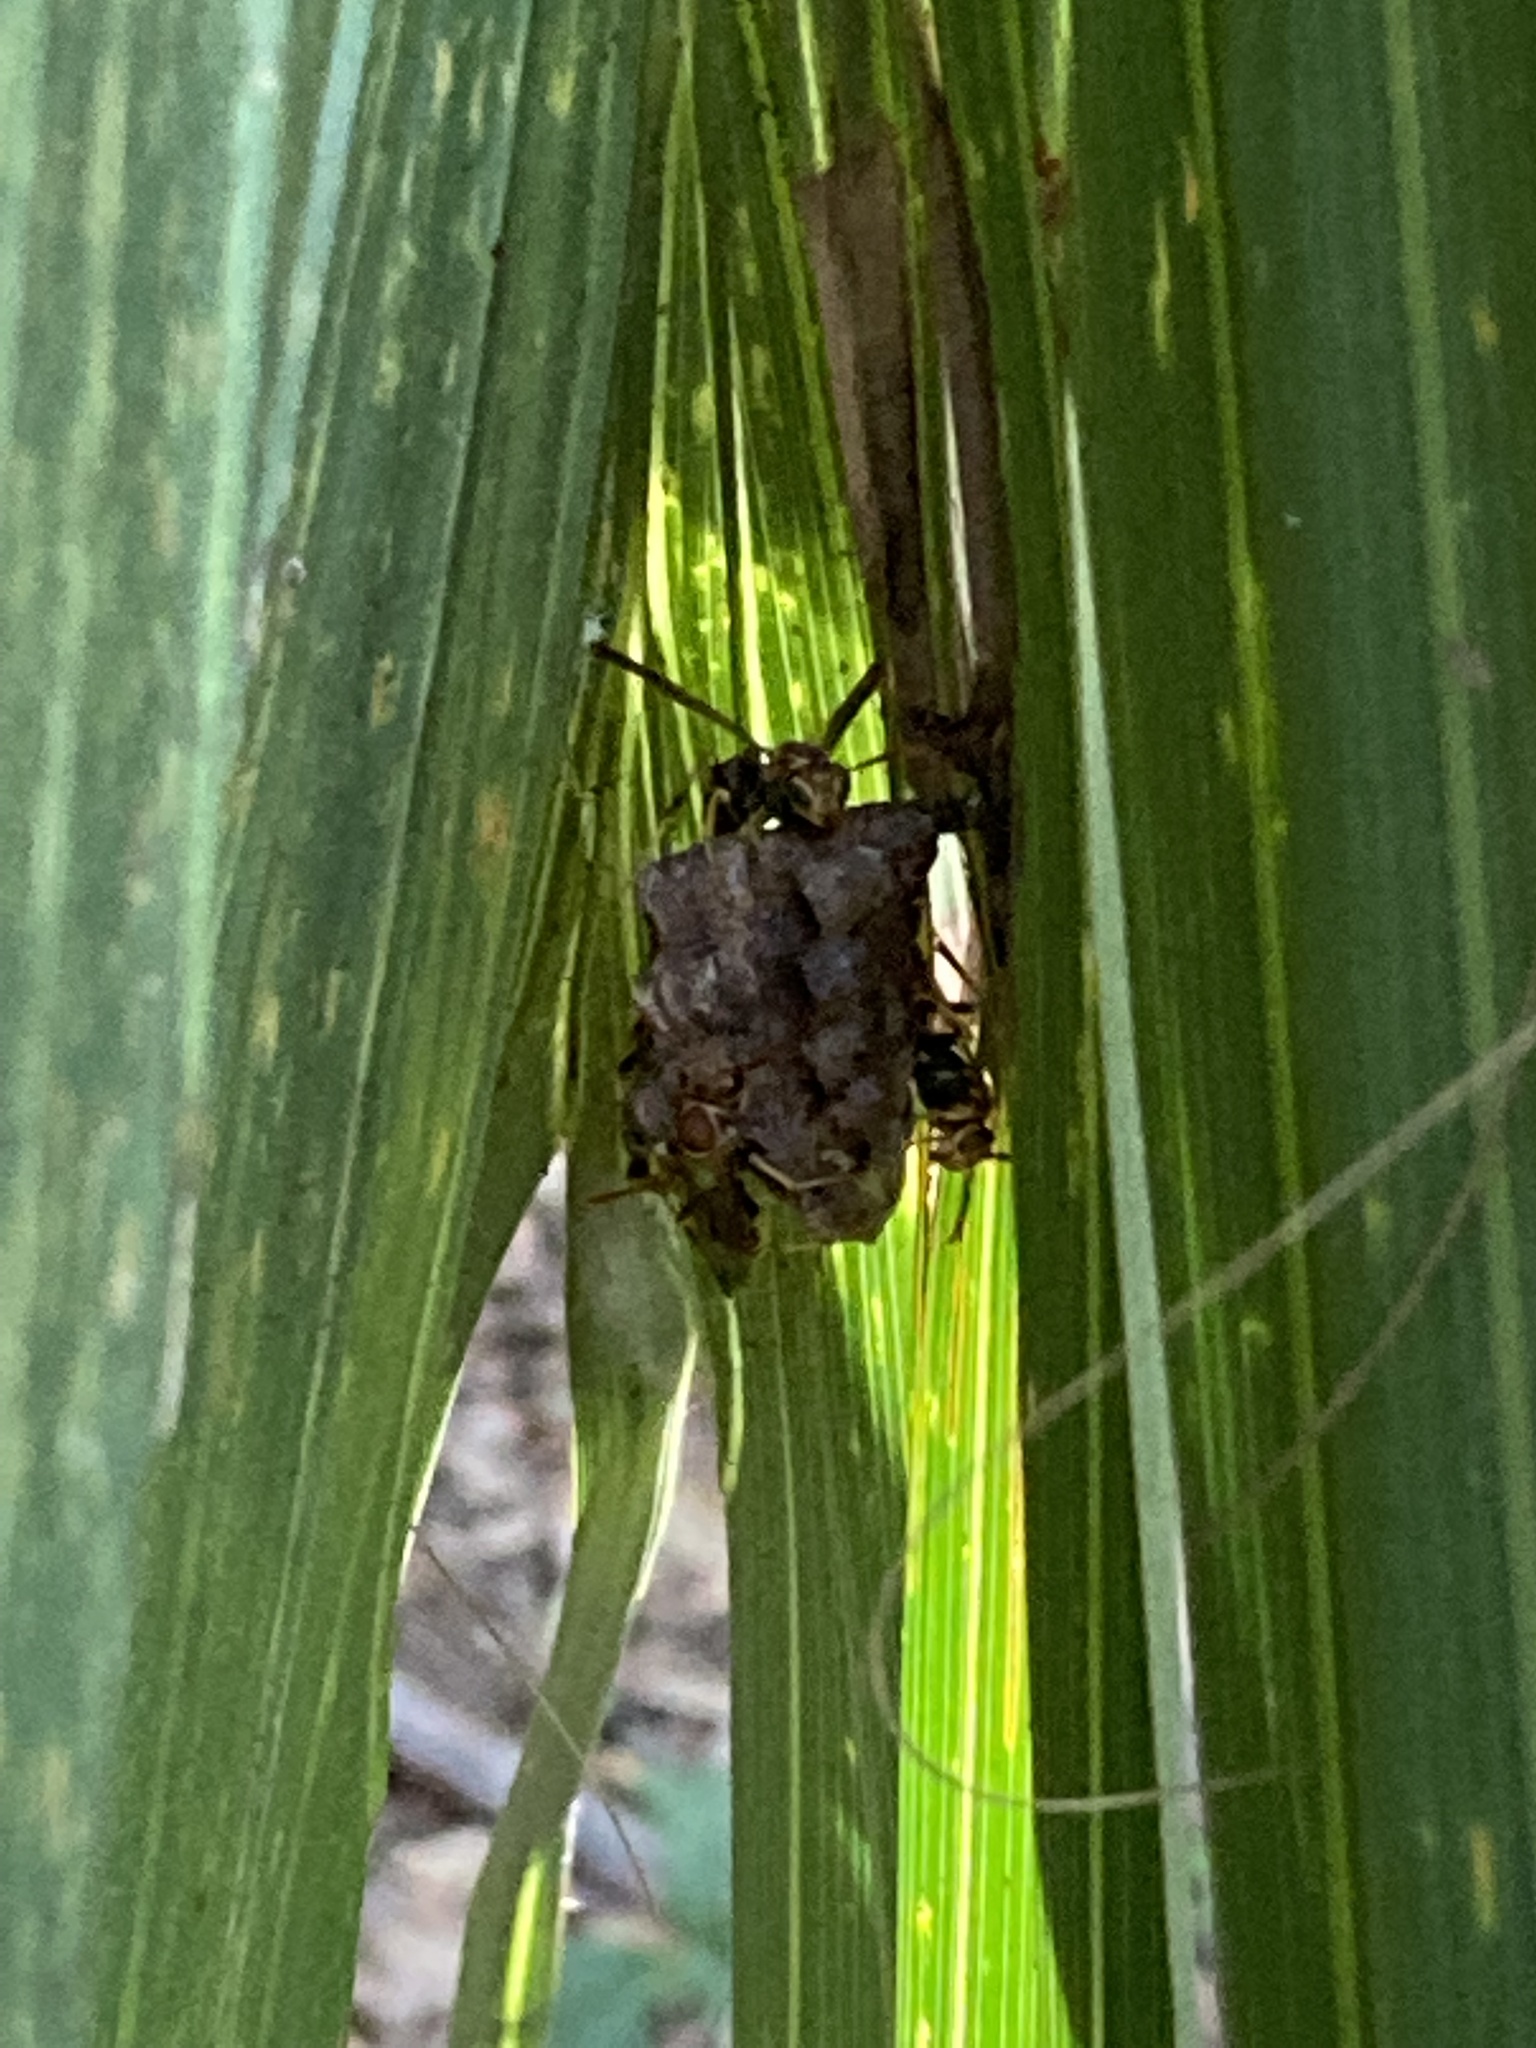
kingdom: Animalia
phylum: Arthropoda
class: Insecta
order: Hymenoptera
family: Vespidae
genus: Mischocyttarus
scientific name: Mischocyttarus mexicanus
